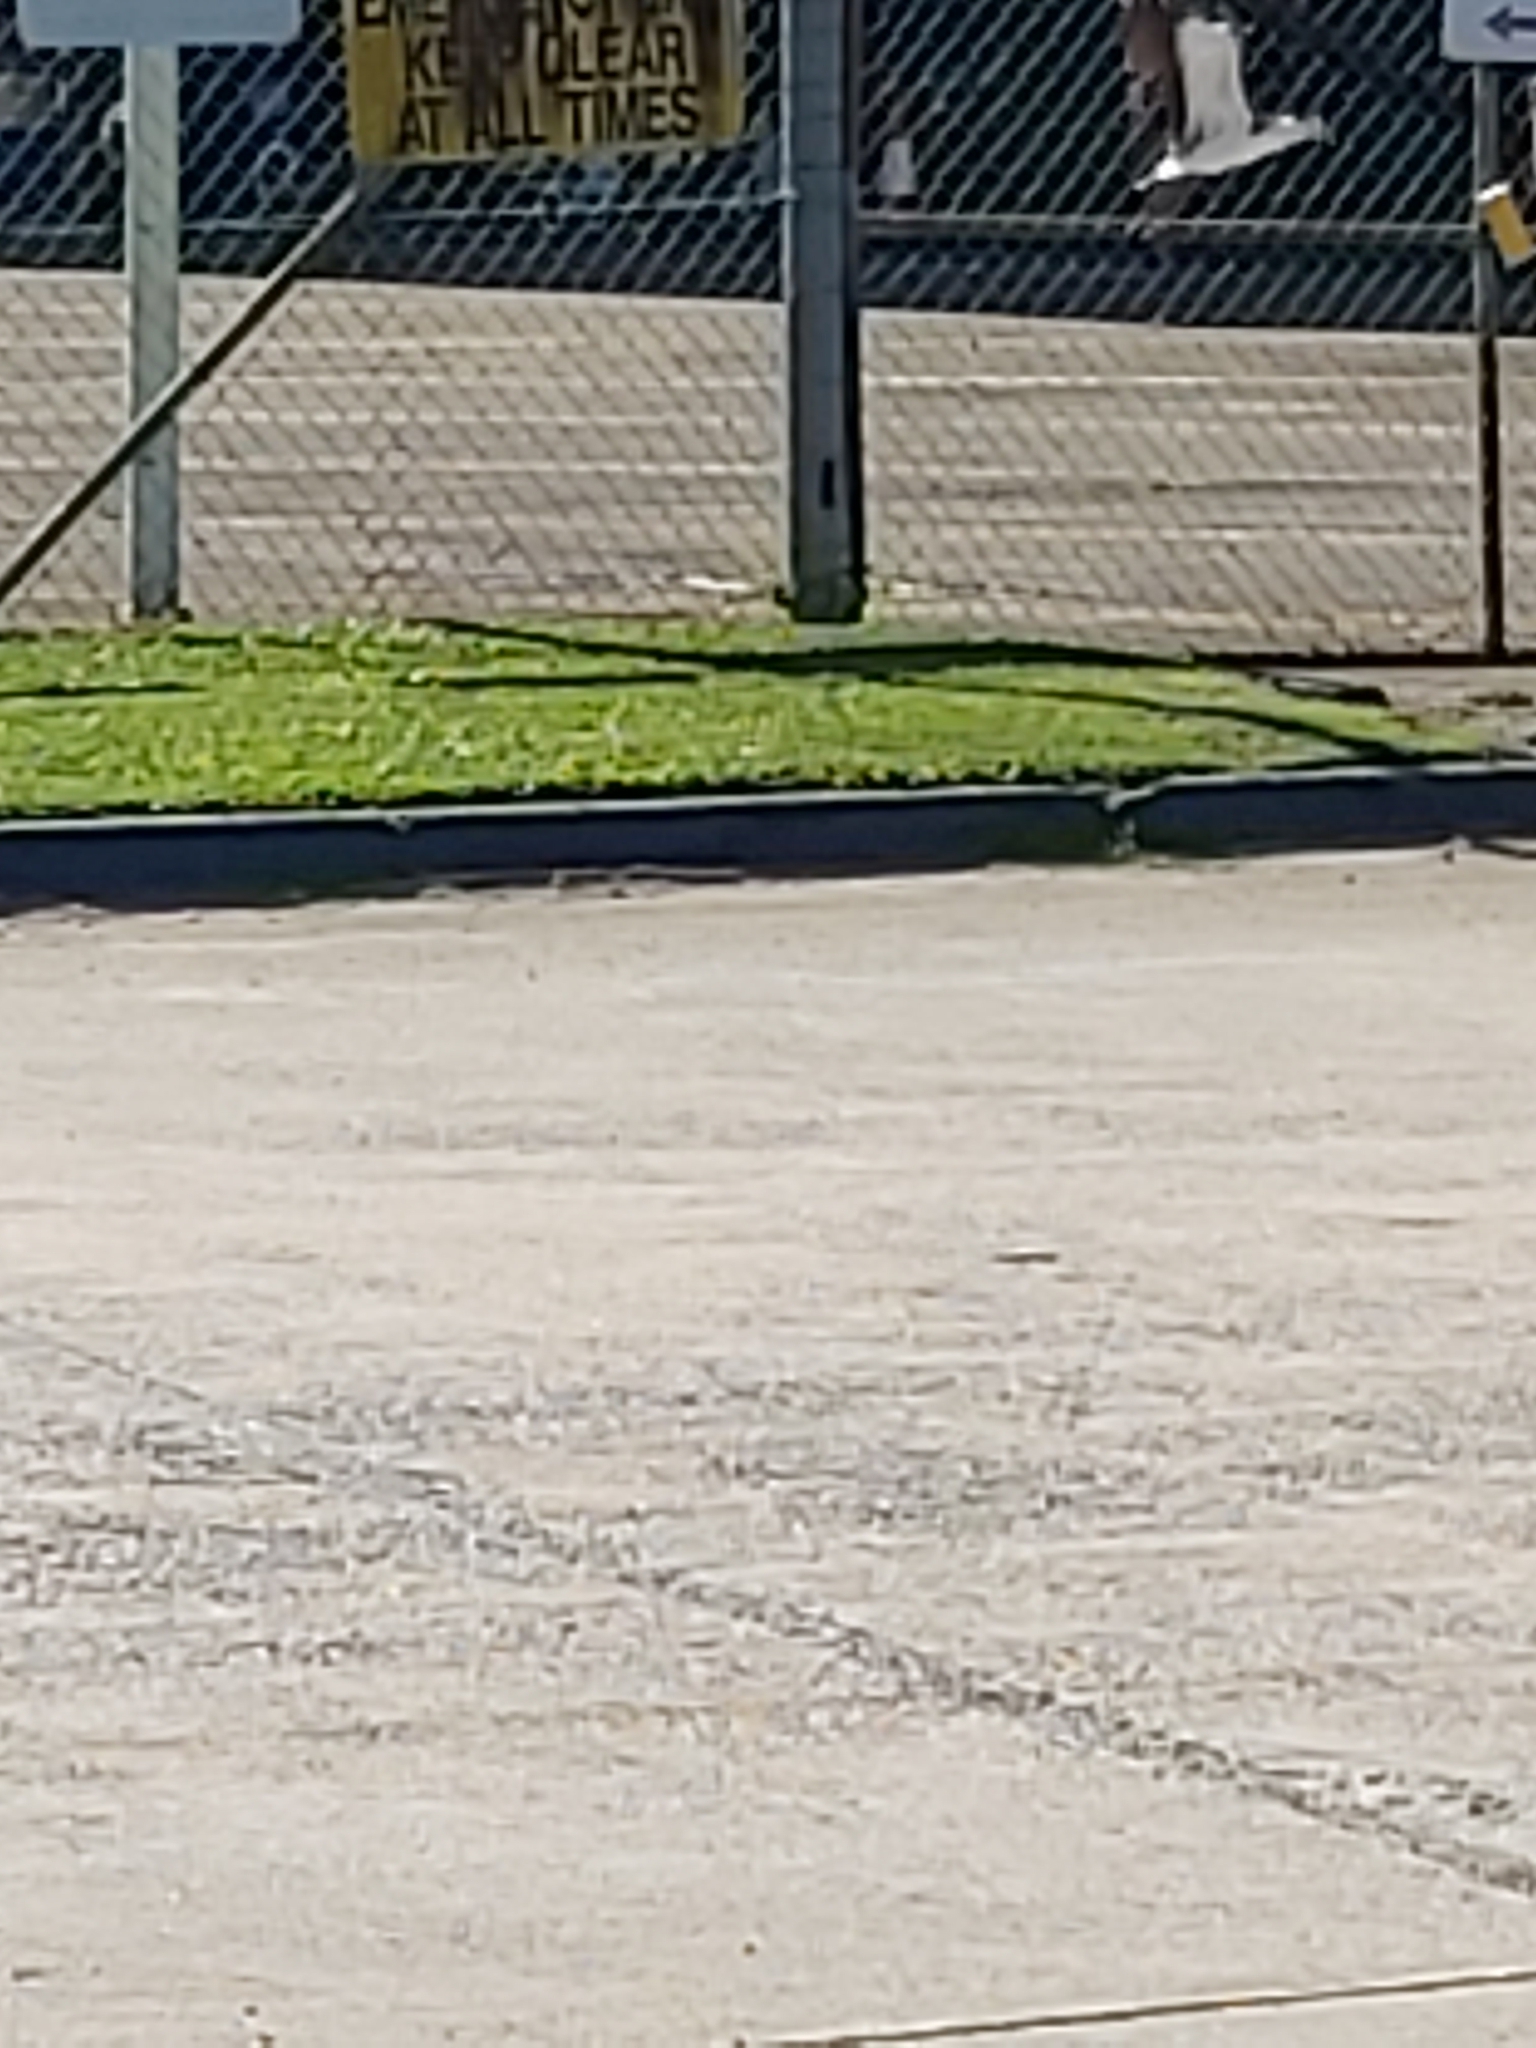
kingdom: Animalia
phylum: Chordata
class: Aves
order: Charadriiformes
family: Charadriidae
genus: Vanellus
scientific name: Vanellus miles
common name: Masked lapwing
